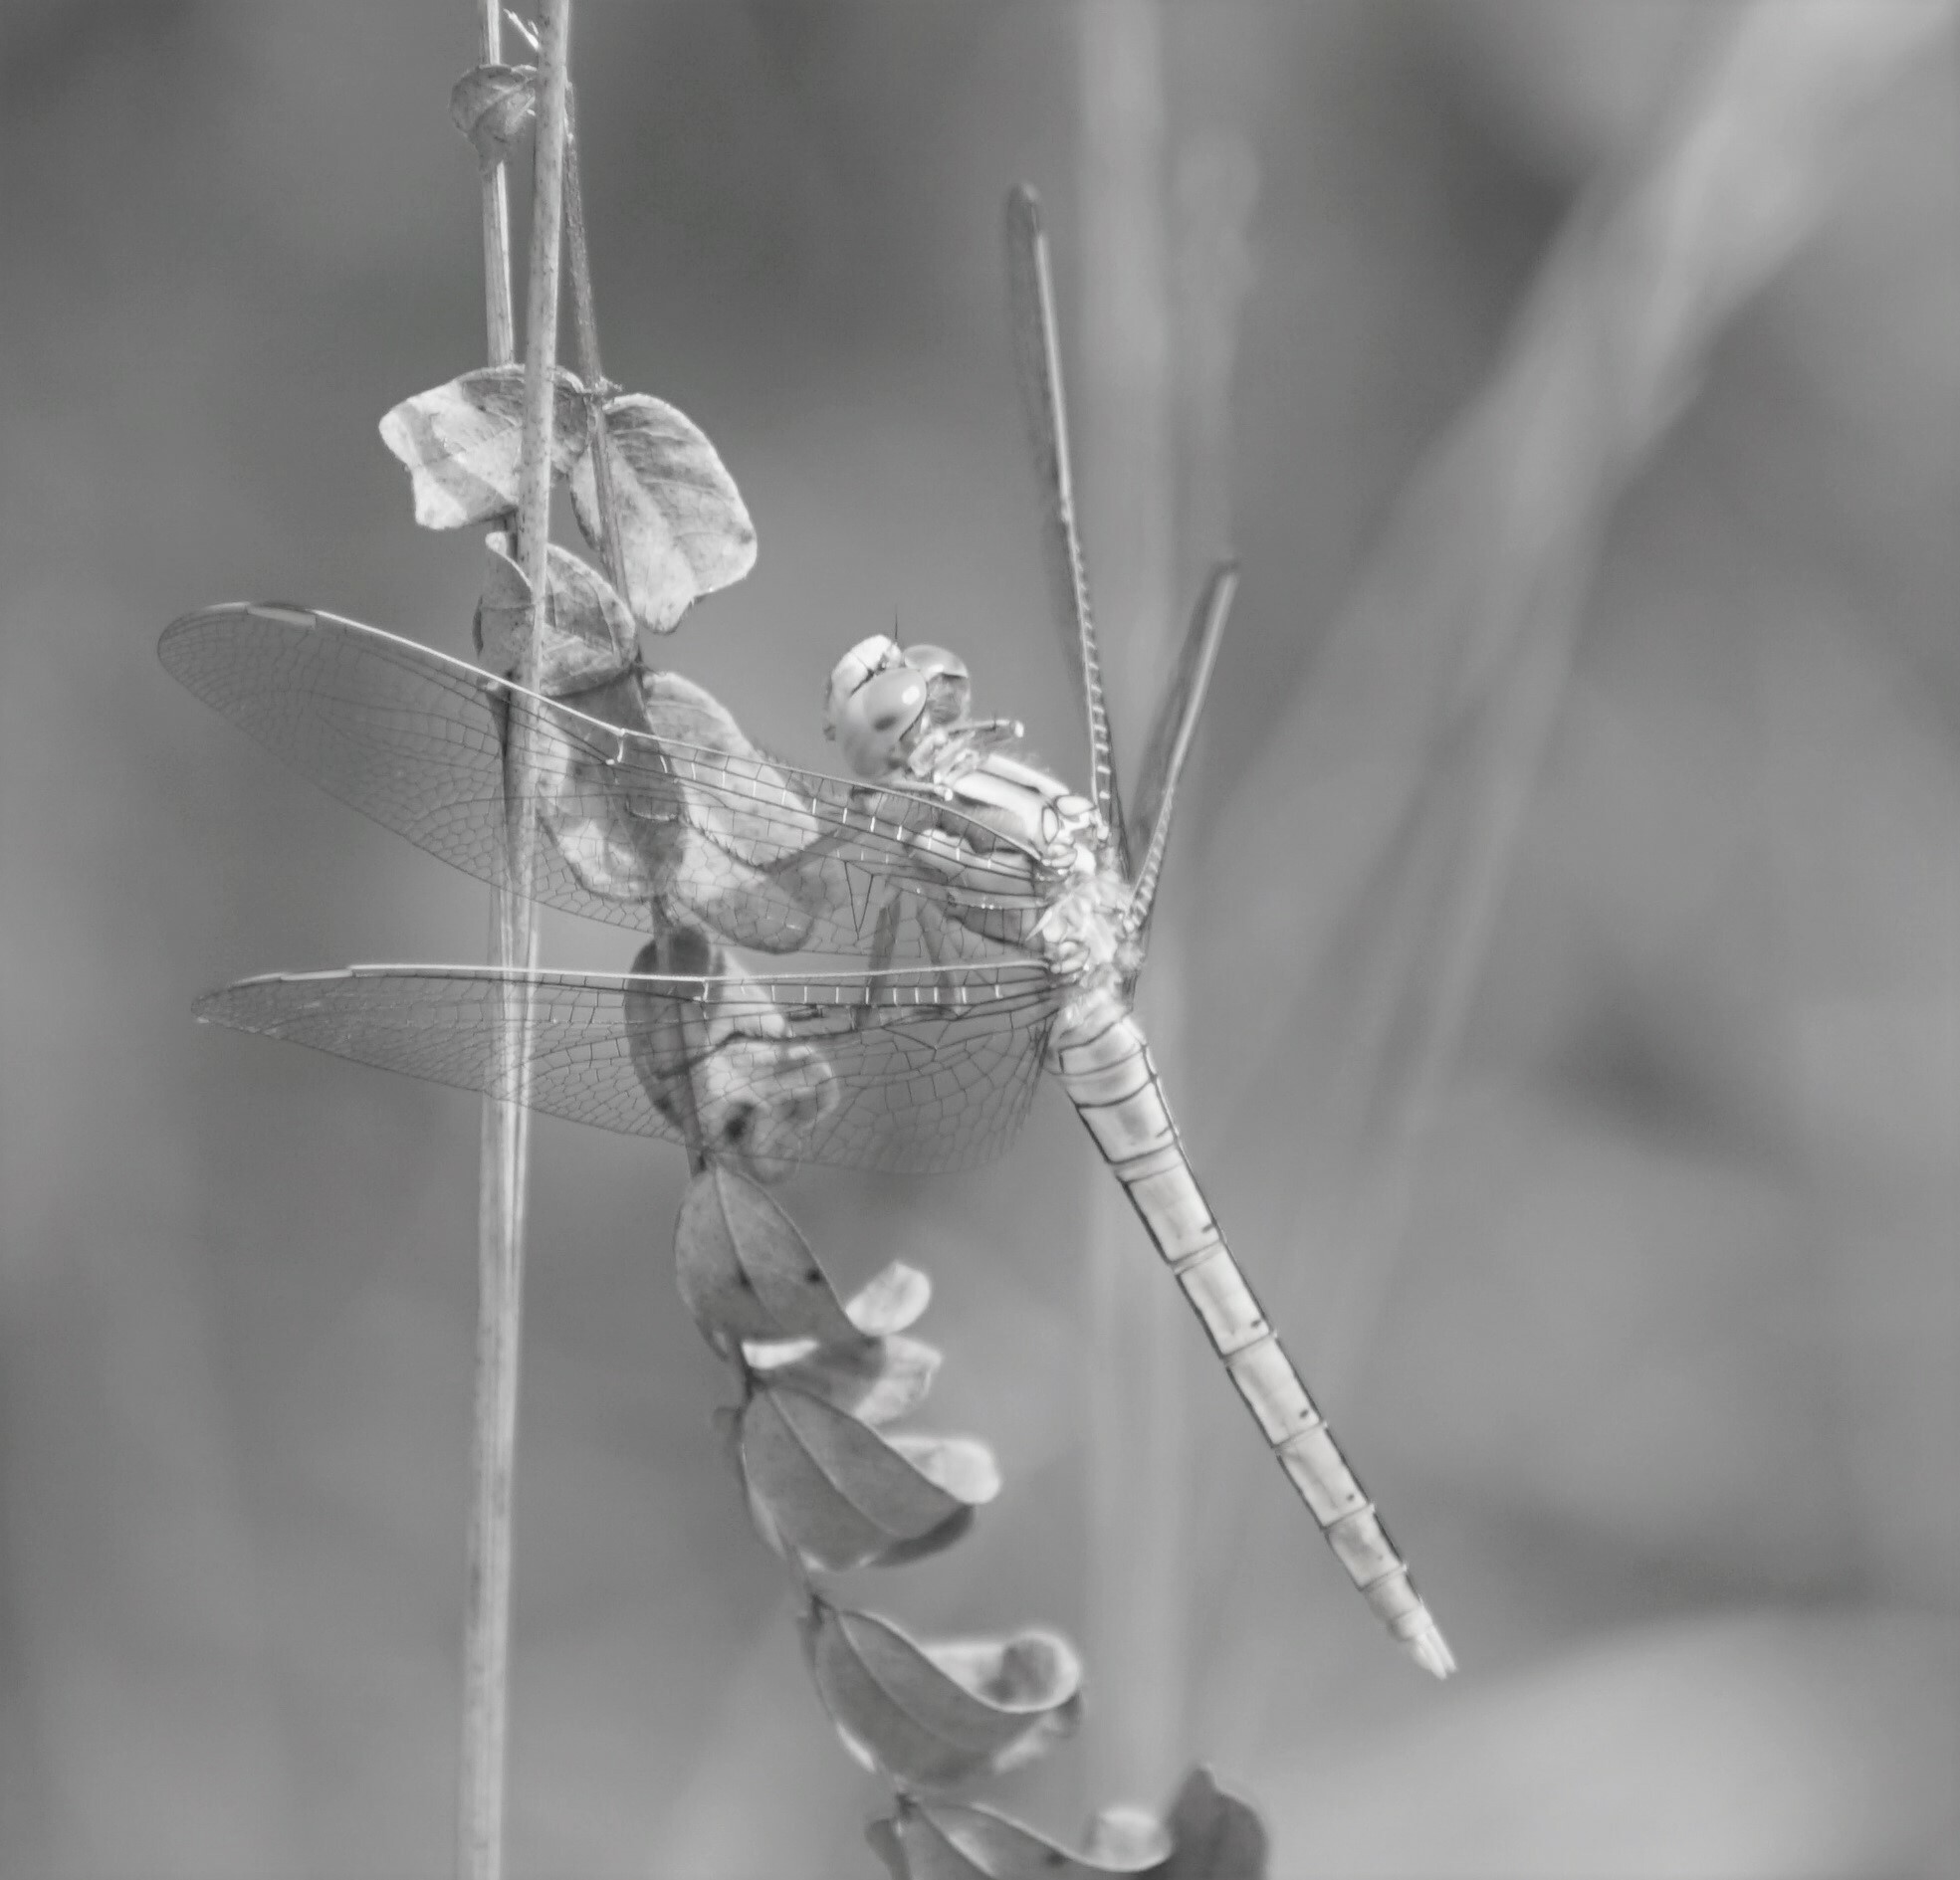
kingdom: Animalia
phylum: Arthropoda
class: Insecta
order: Odonata
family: Libellulidae
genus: Orthetrum
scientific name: Orthetrum brunneum
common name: Southern skimmer
